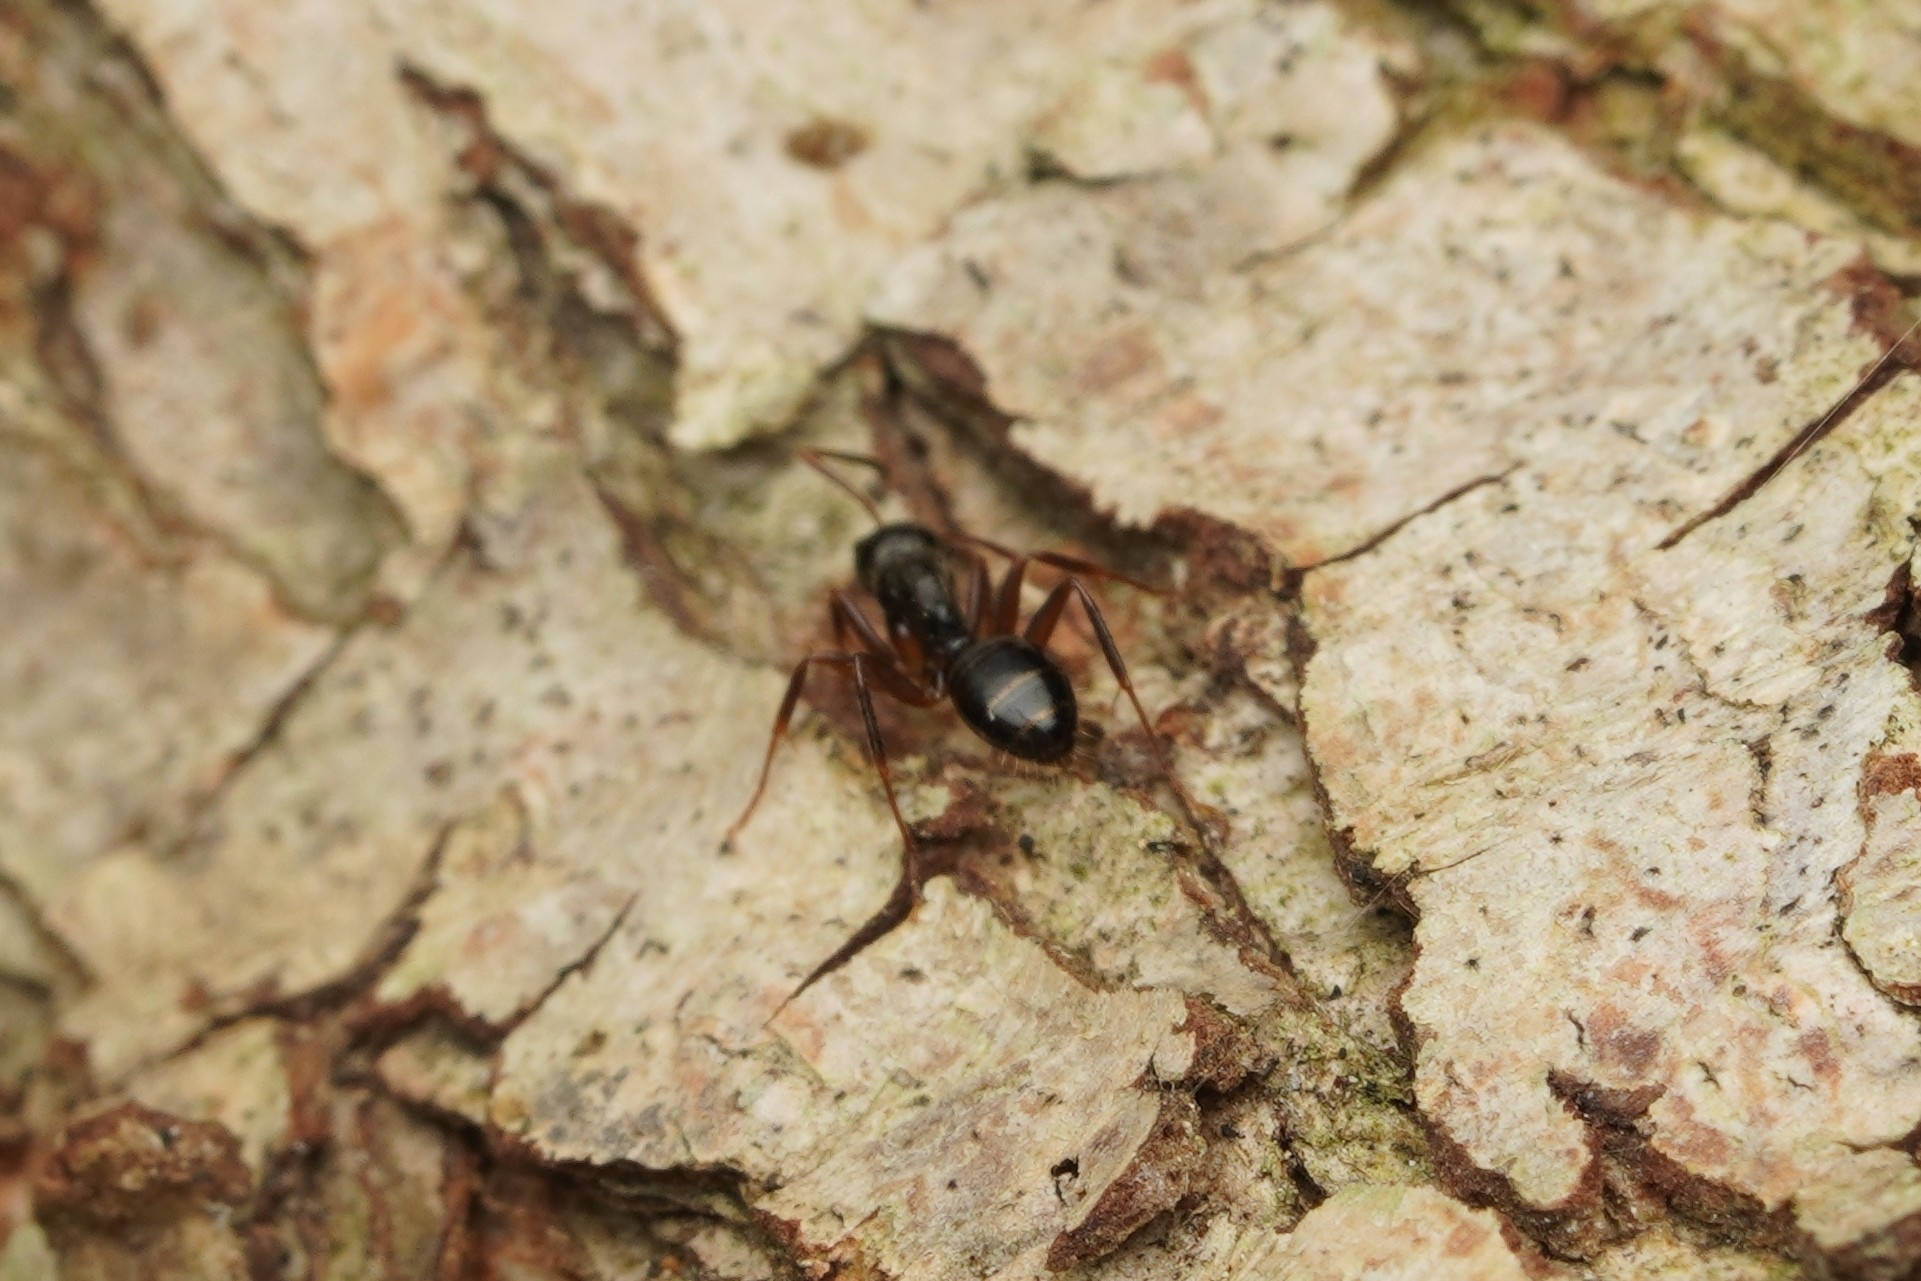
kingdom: Animalia
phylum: Arthropoda
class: Insecta
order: Hymenoptera
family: Formicidae
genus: Camponotus
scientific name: Camponotus nipponensis
